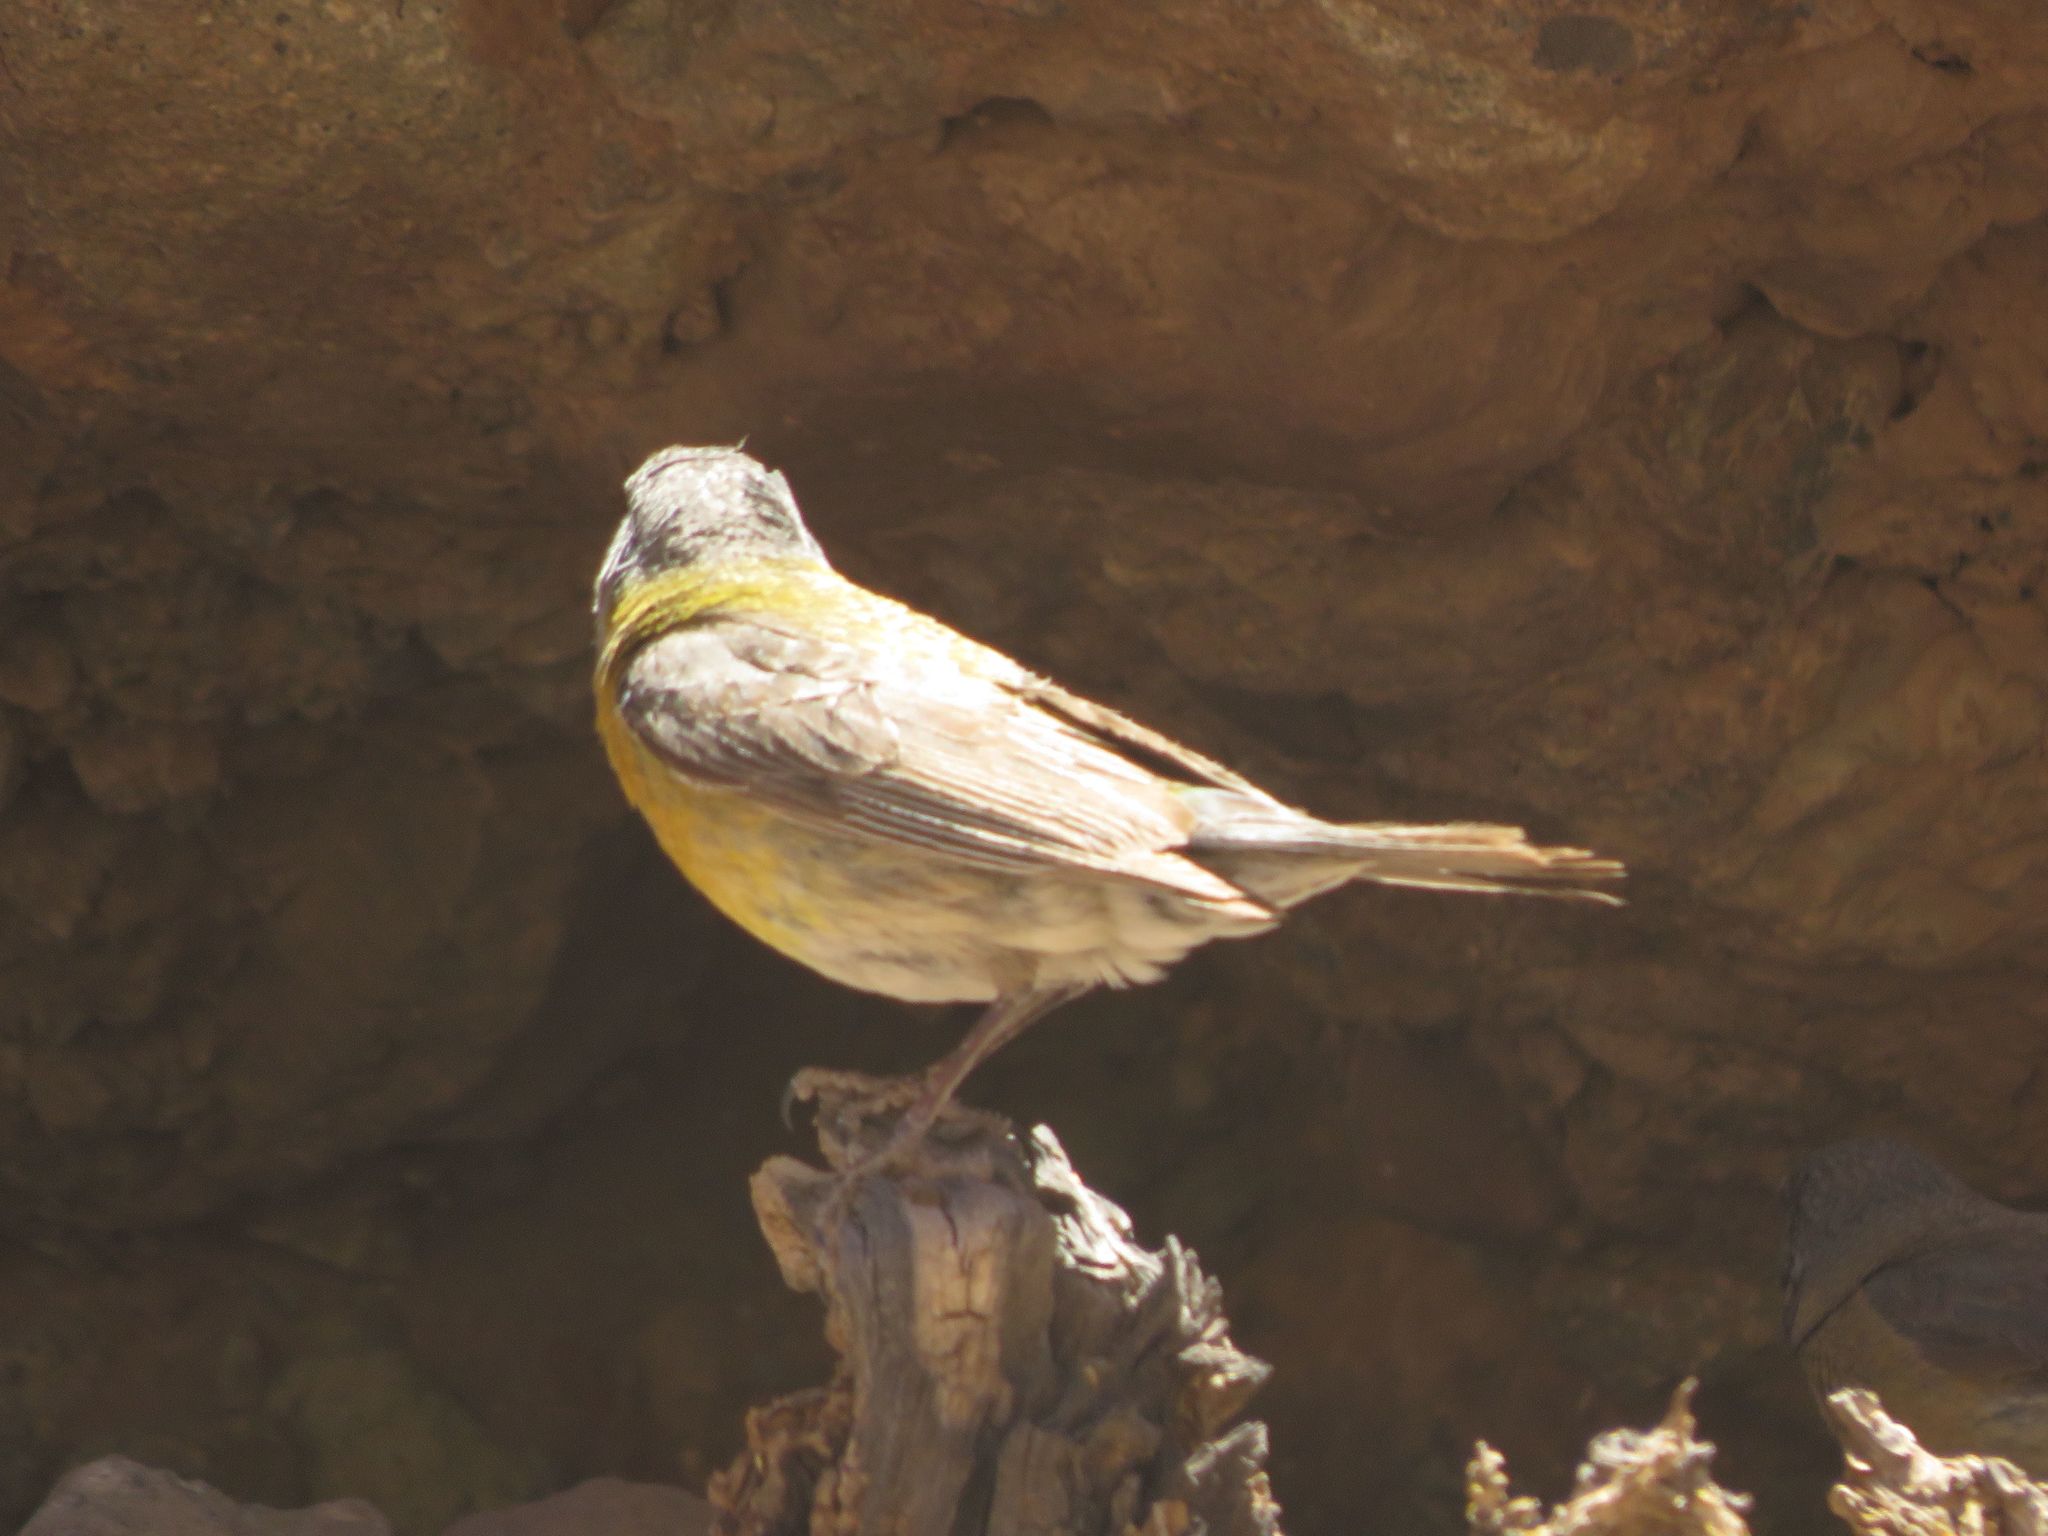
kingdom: Animalia
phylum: Chordata
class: Aves
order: Passeriformes
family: Thraupidae
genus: Phrygilus
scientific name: Phrygilus gayi
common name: Grey-hooded sierra finch
